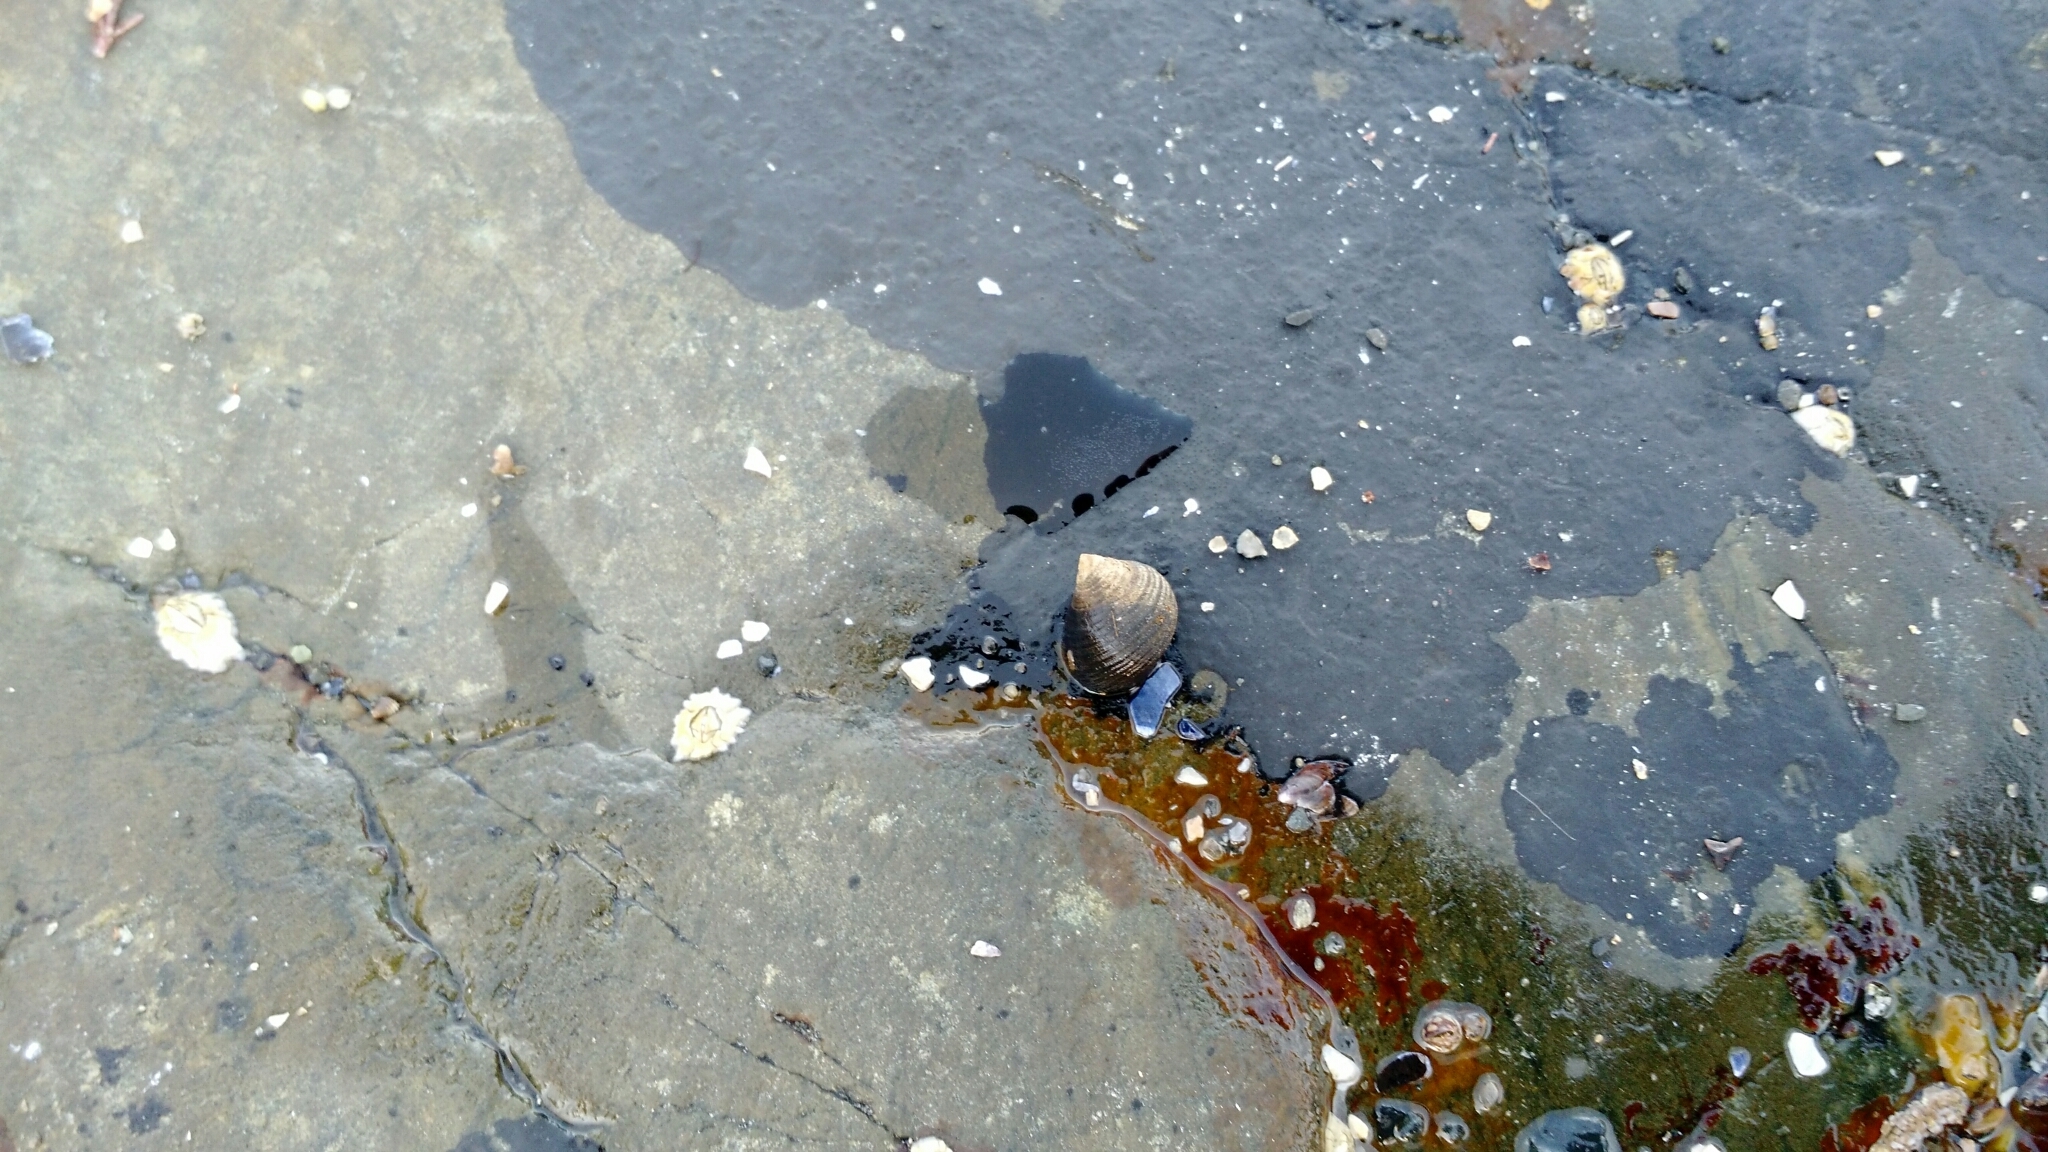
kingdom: Animalia
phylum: Mollusca
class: Gastropoda
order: Littorinimorpha
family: Littorinidae
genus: Littorina
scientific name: Littorina littorea
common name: Common periwinkle
